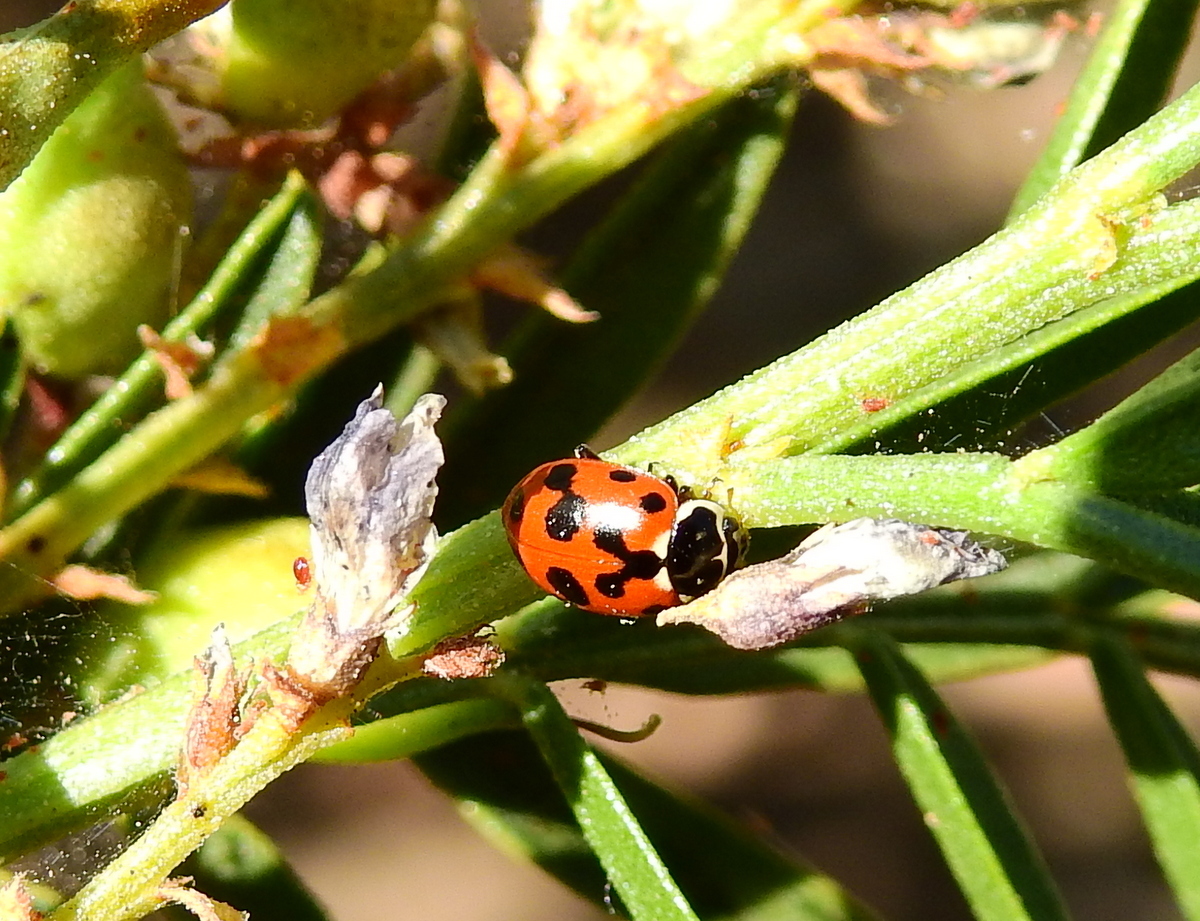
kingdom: Animalia
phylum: Arthropoda
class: Insecta
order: Coleoptera
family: Coccinellidae
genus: Hippodamia
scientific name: Hippodamia variegata
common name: Ladybird beetle
